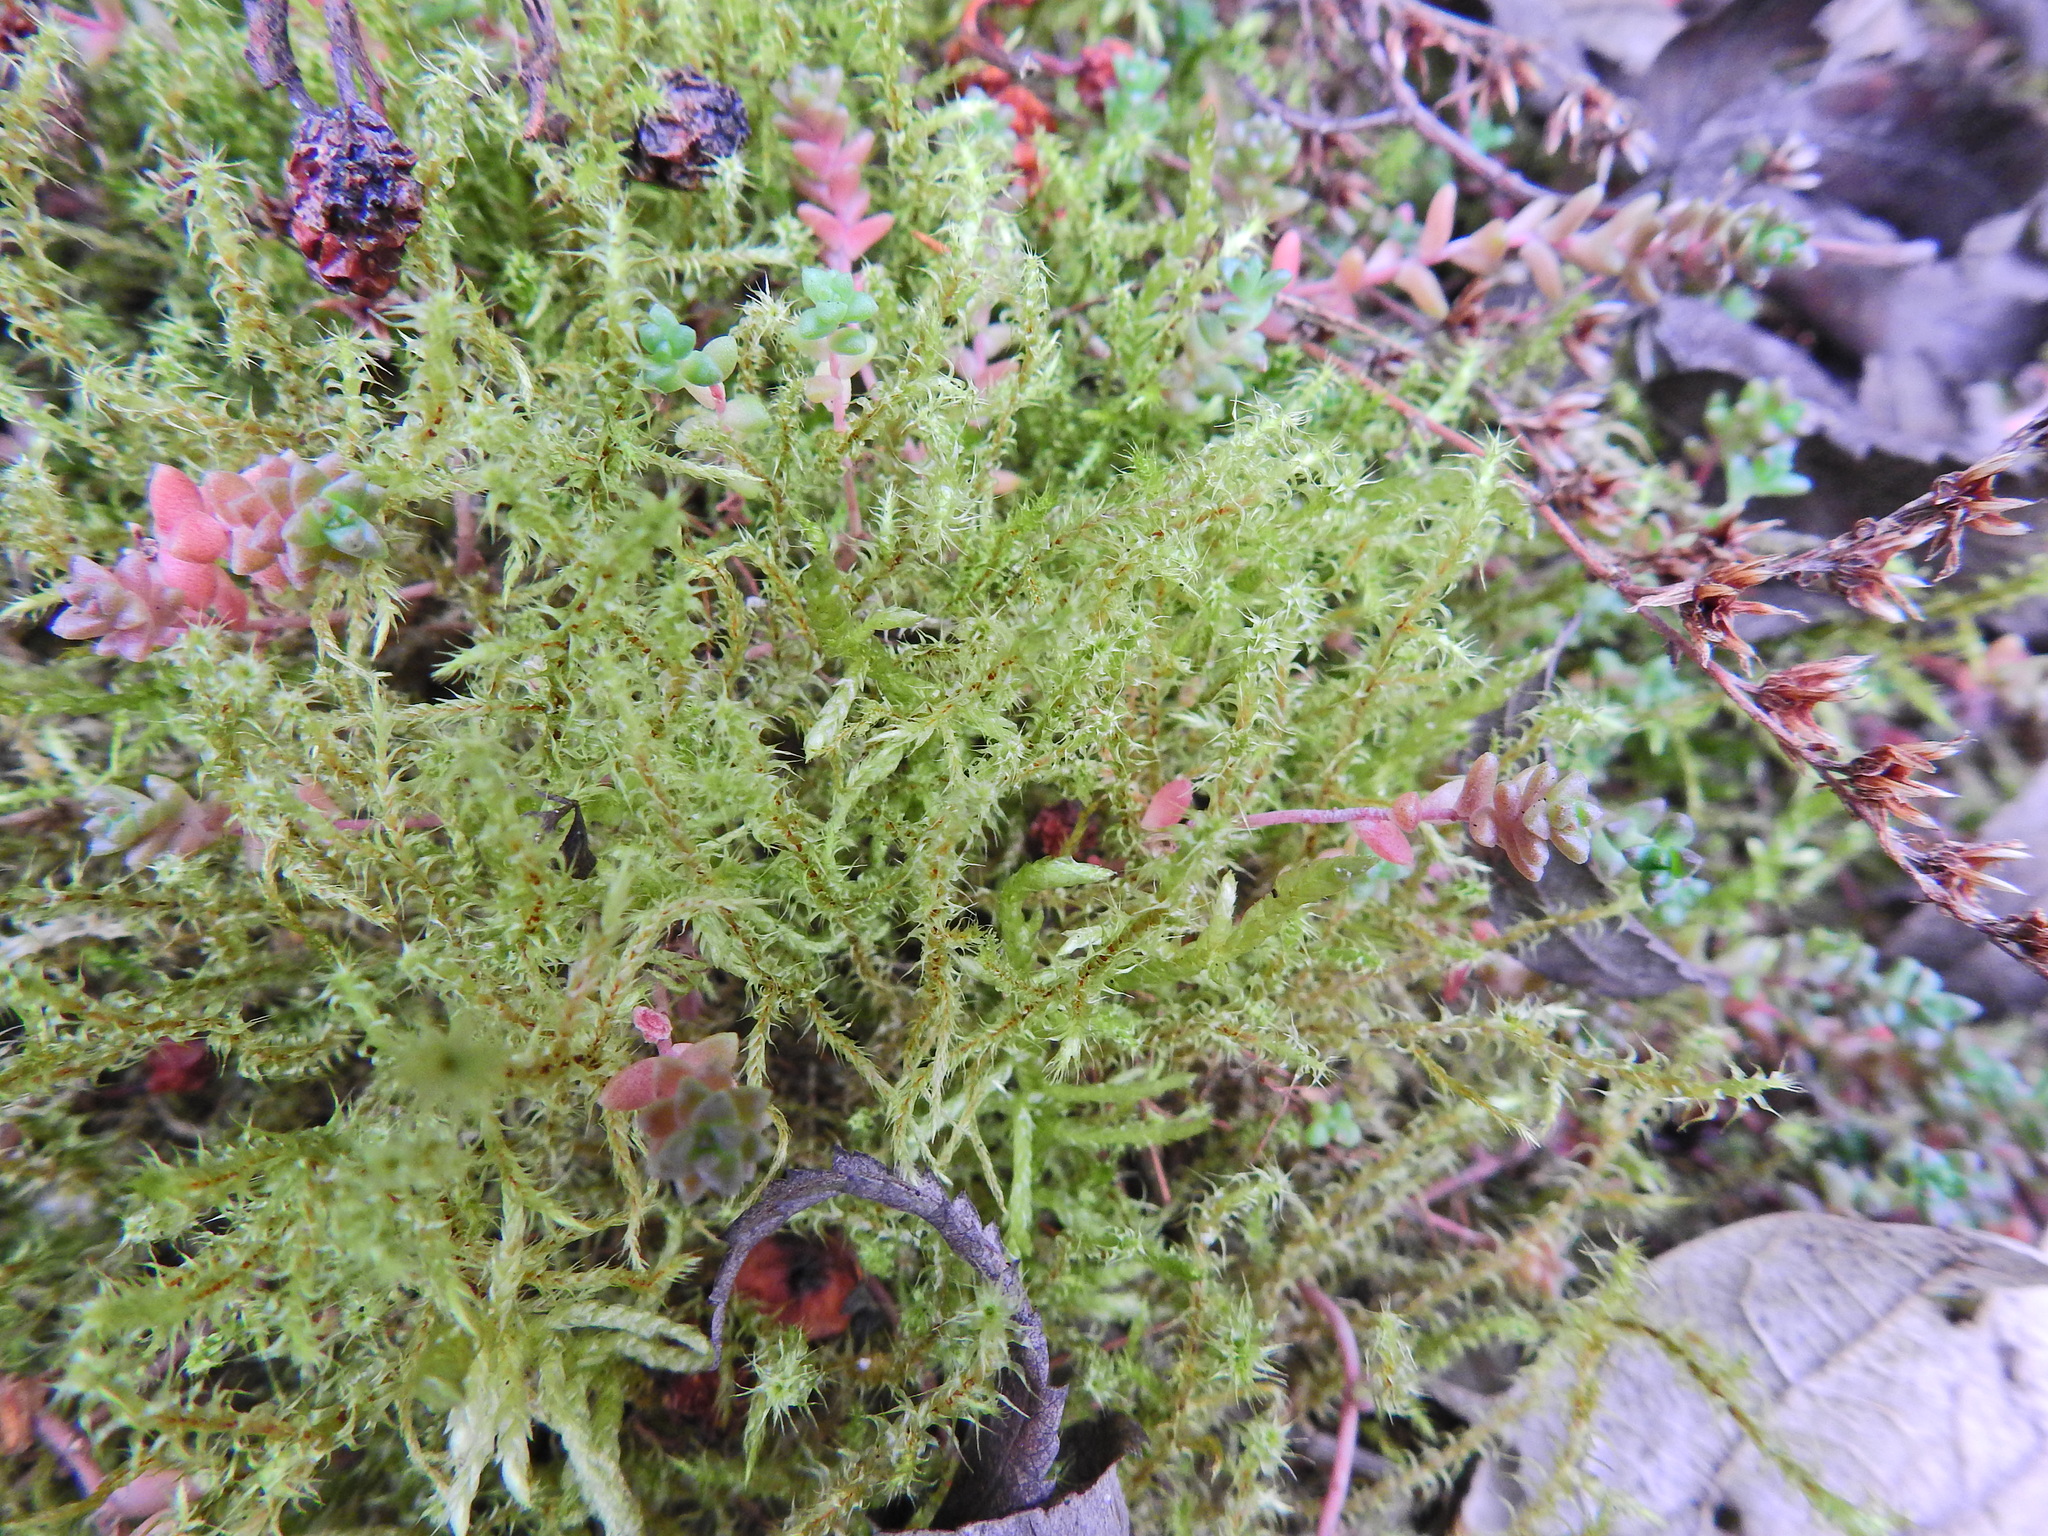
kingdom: Plantae
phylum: Bryophyta
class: Bryopsida
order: Hypnales
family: Hylocomiaceae
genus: Rhytidiadelphus
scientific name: Rhytidiadelphus squarrosus
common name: Springy turf-moss
